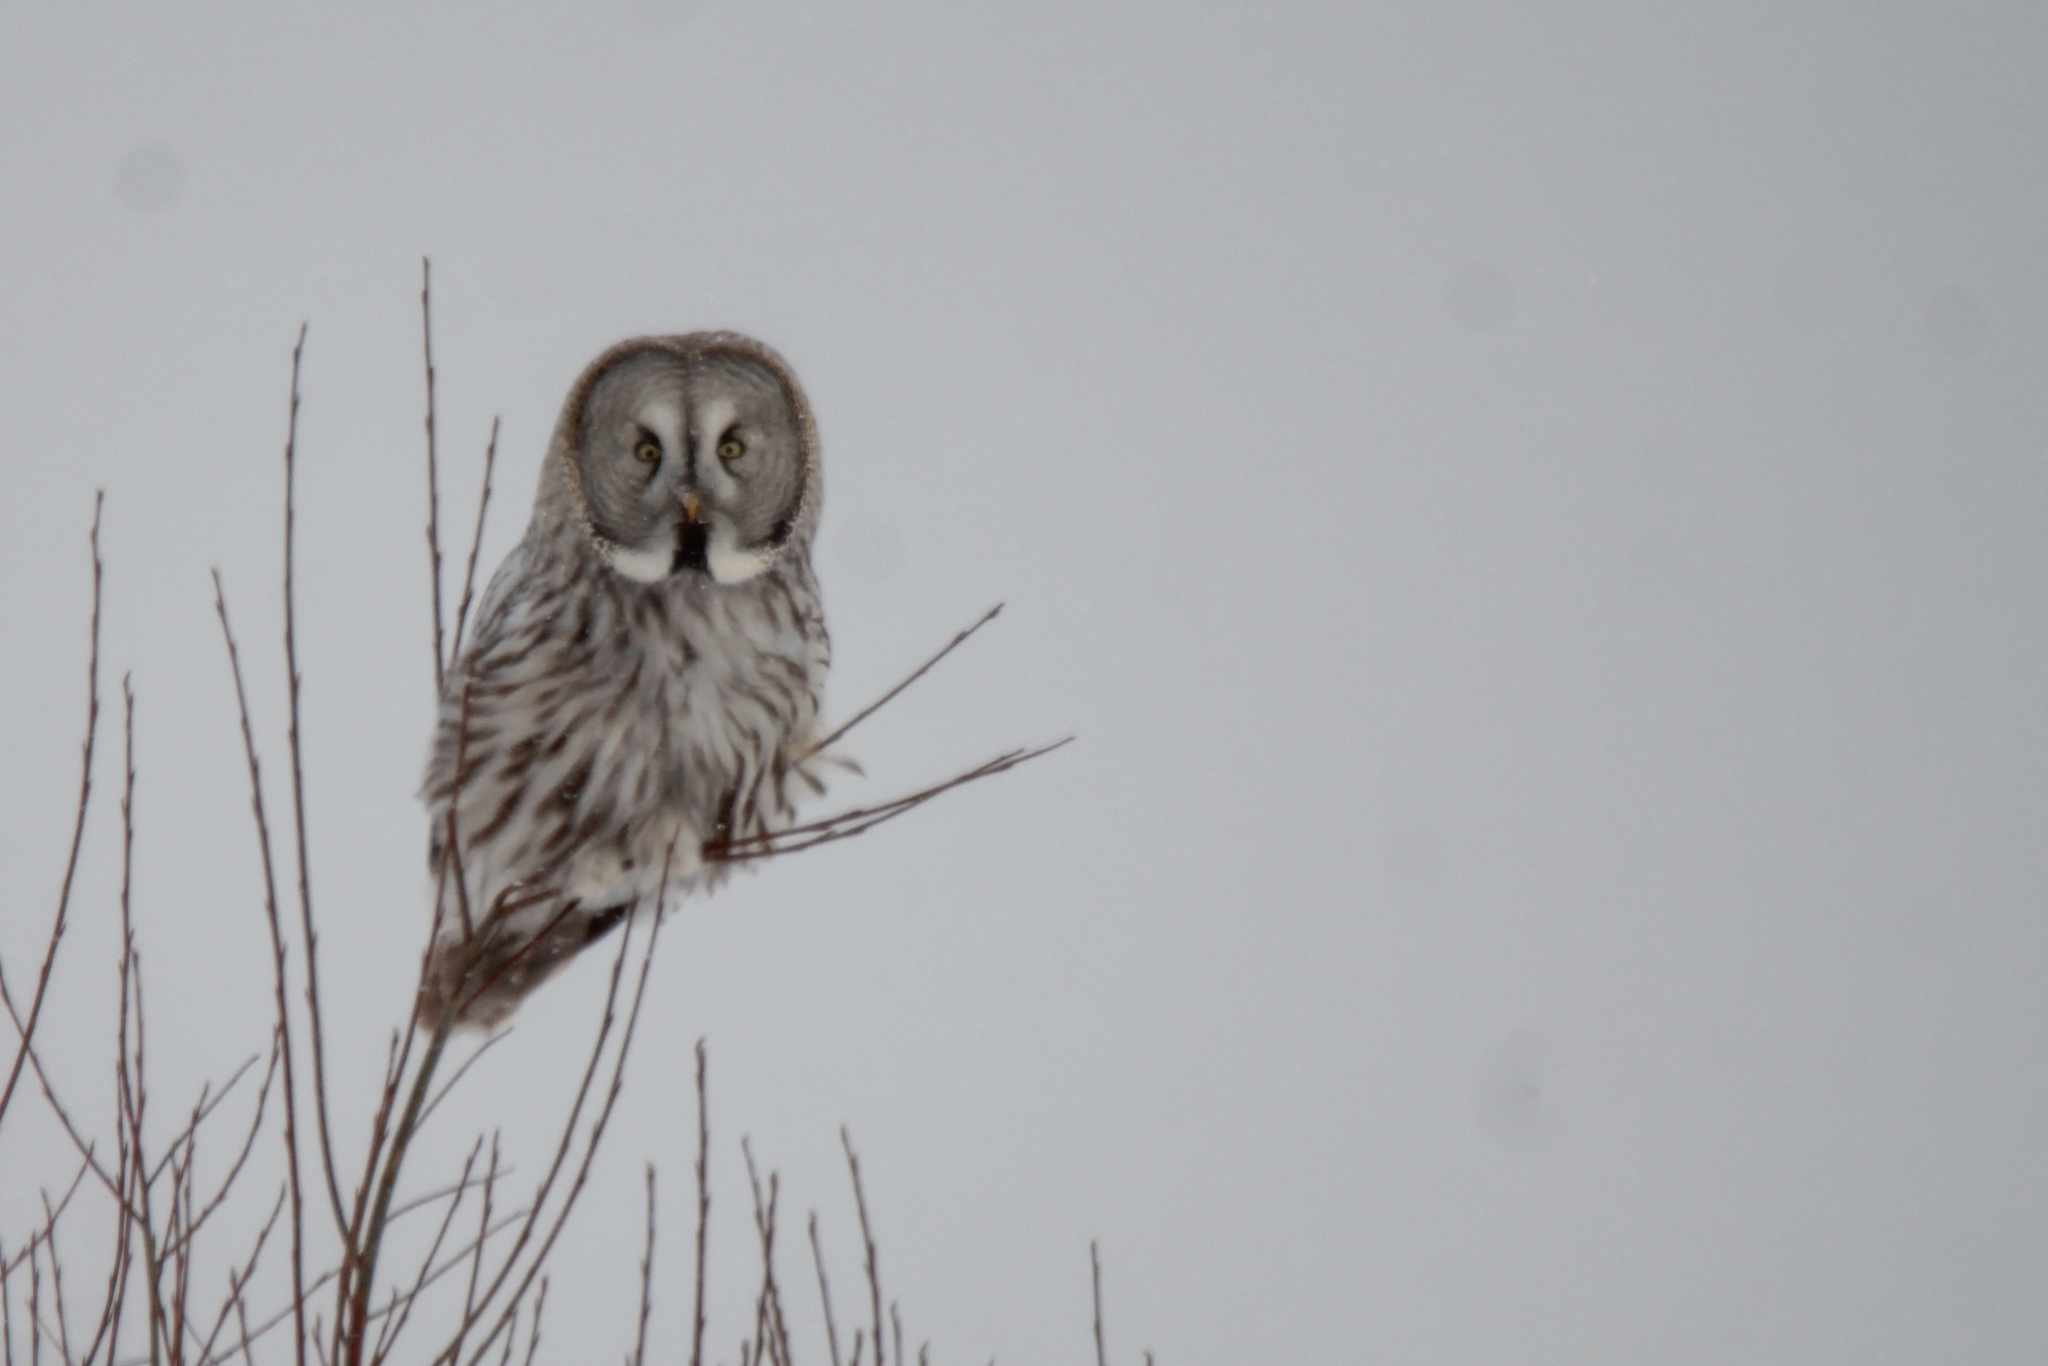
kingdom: Animalia
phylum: Chordata
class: Aves
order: Strigiformes
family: Strigidae
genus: Strix
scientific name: Strix nebulosa
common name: Great grey owl
